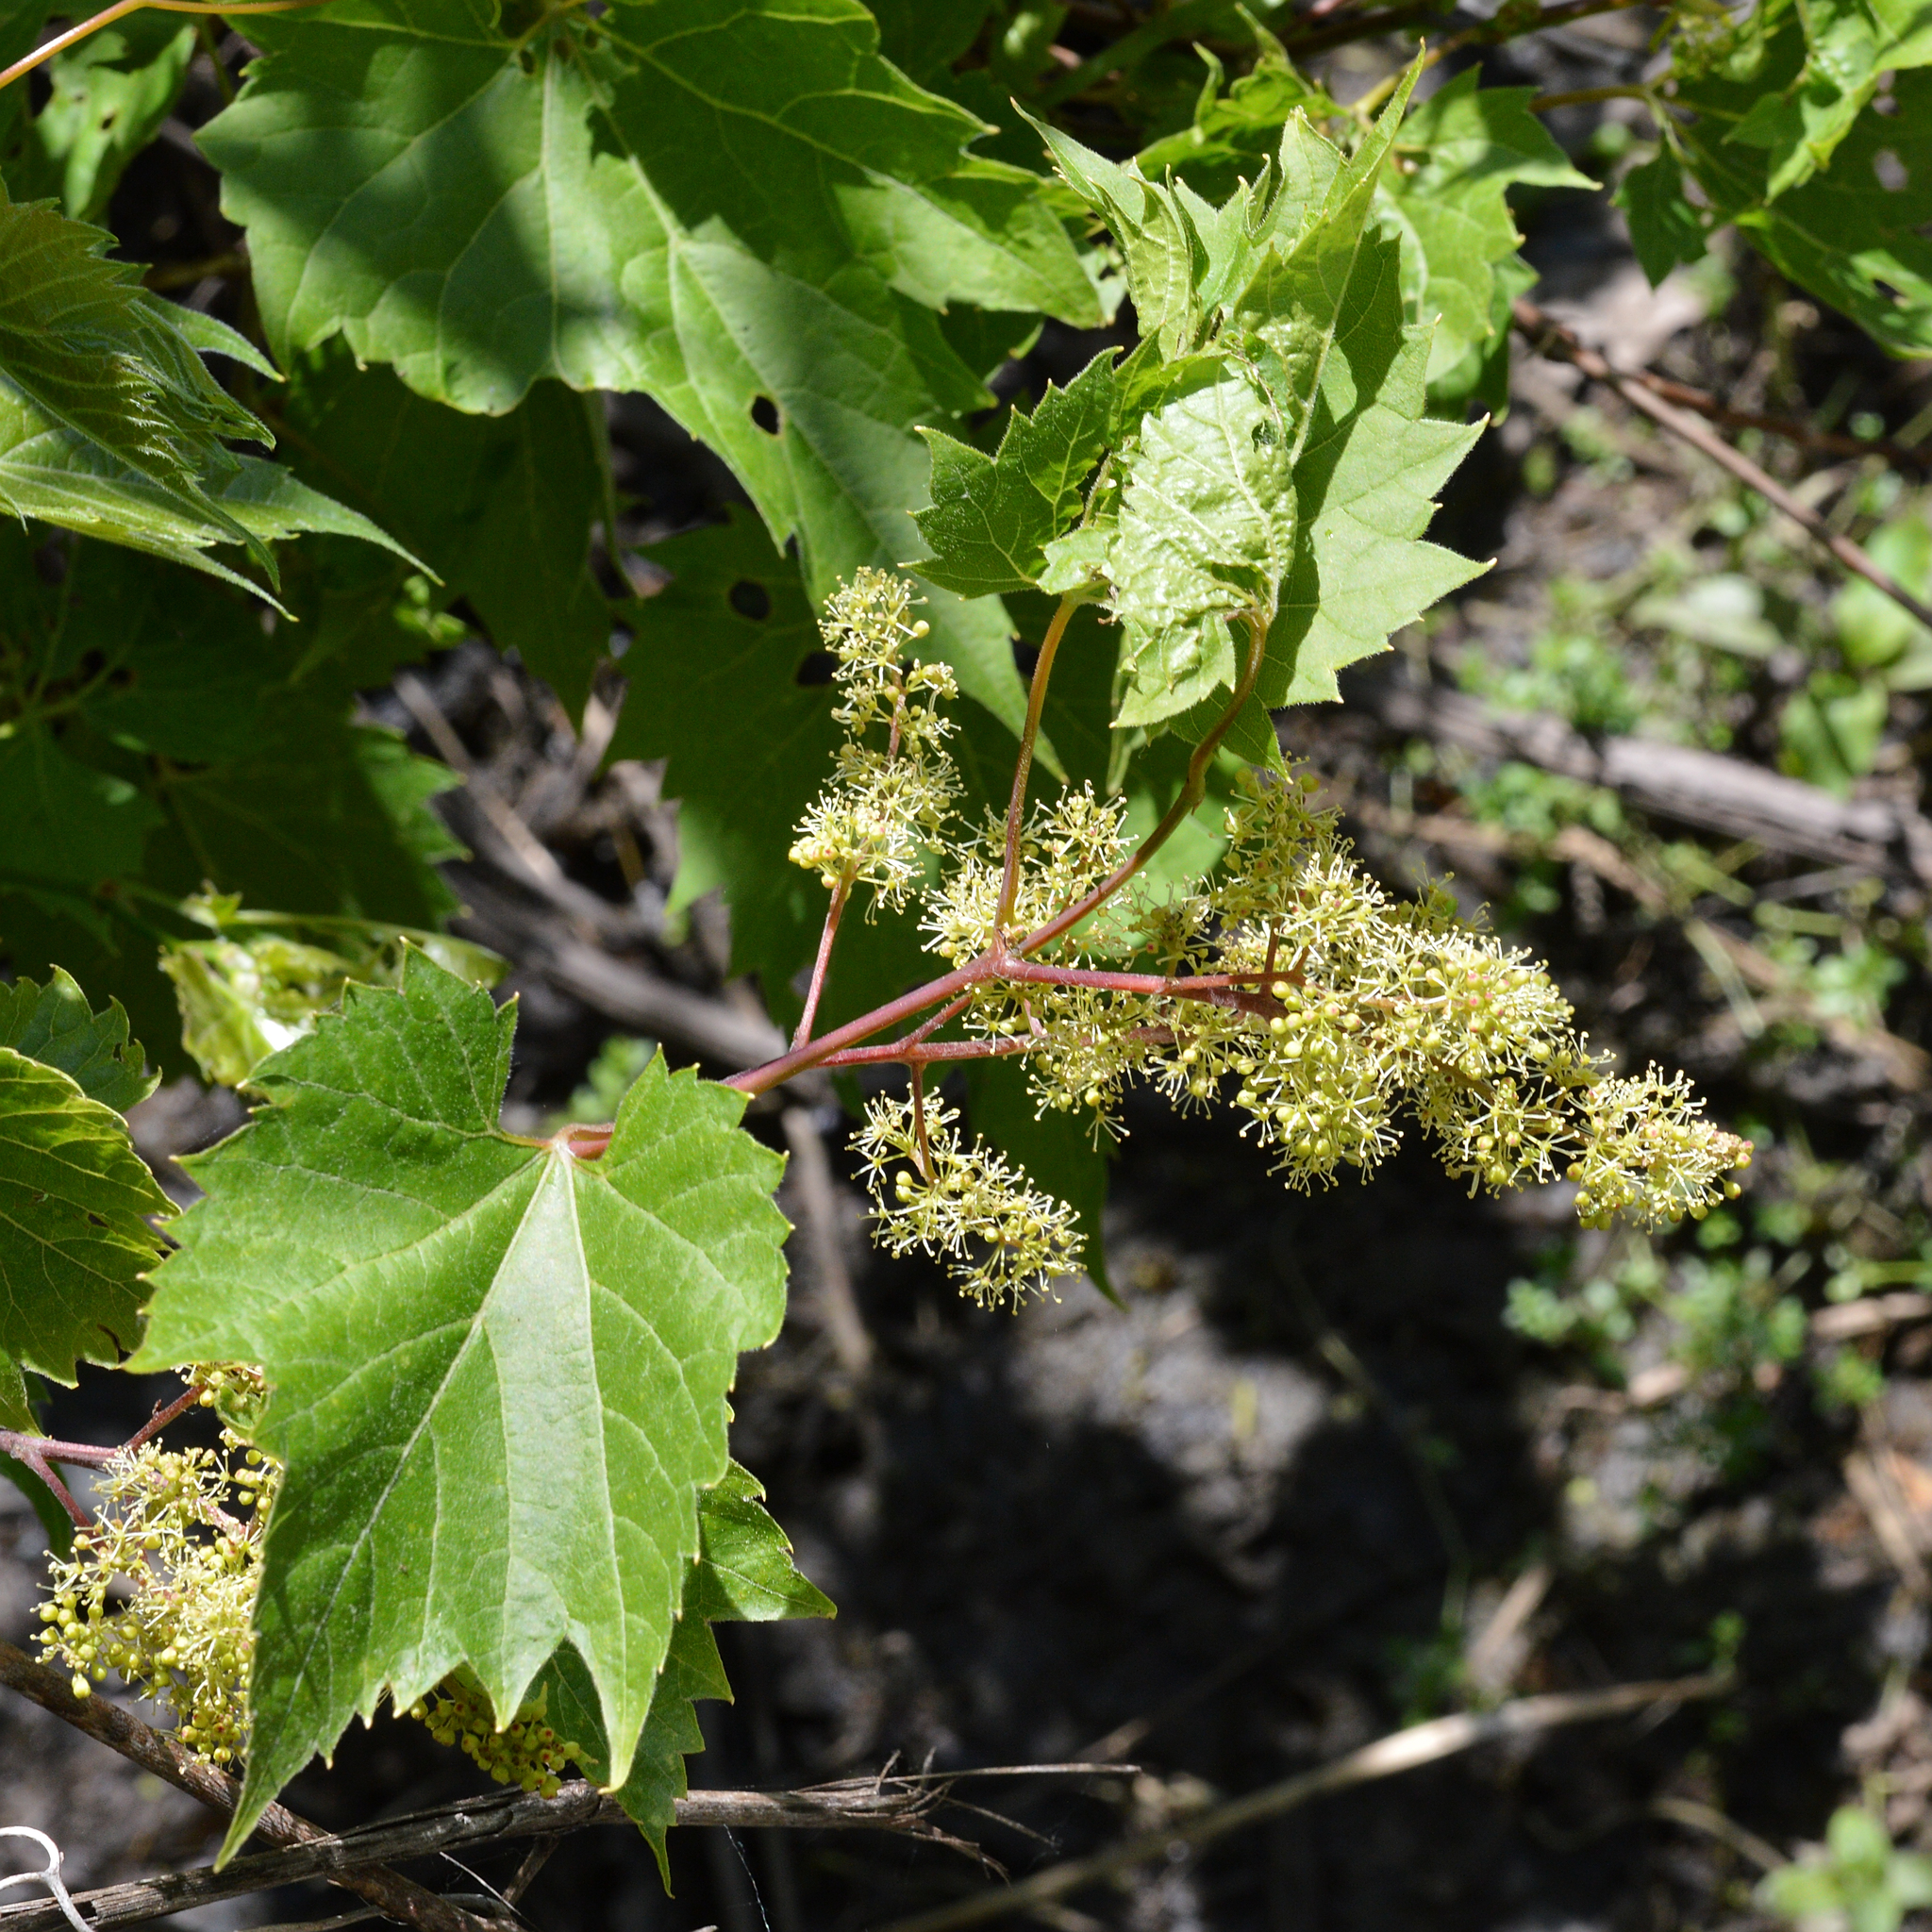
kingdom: Plantae
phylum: Tracheophyta
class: Magnoliopsida
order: Vitales
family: Vitaceae
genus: Vitis
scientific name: Vitis riparia
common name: Frost grape
